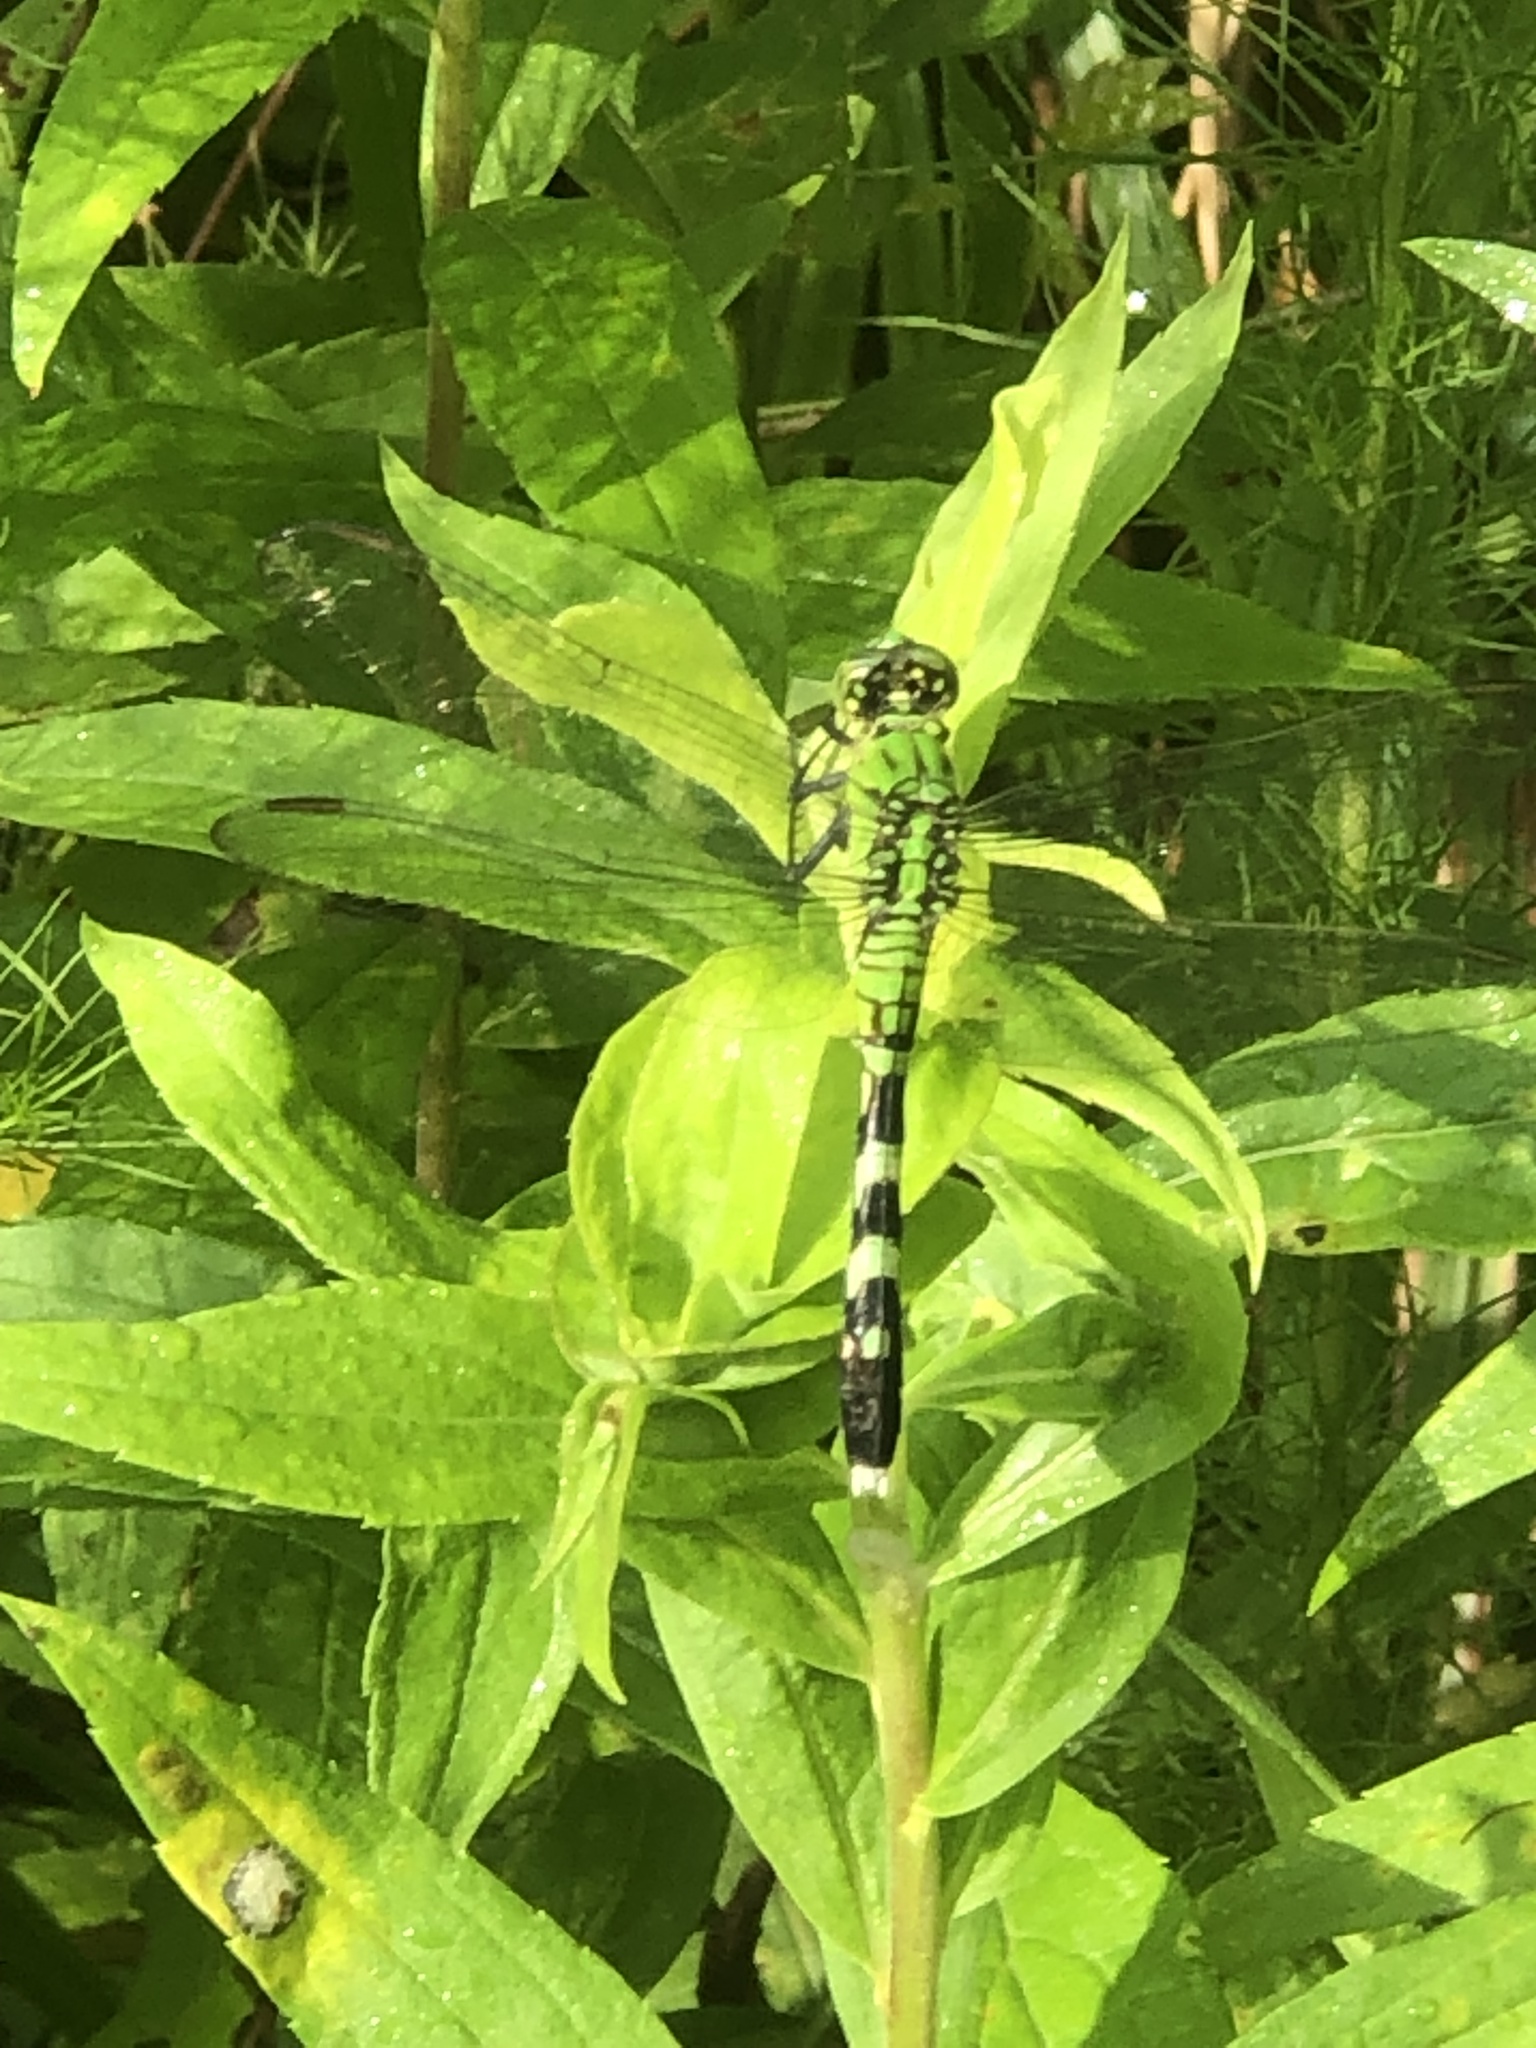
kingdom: Animalia
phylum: Arthropoda
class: Insecta
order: Odonata
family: Libellulidae
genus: Erythemis
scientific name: Erythemis simplicicollis
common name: Eastern pondhawk
